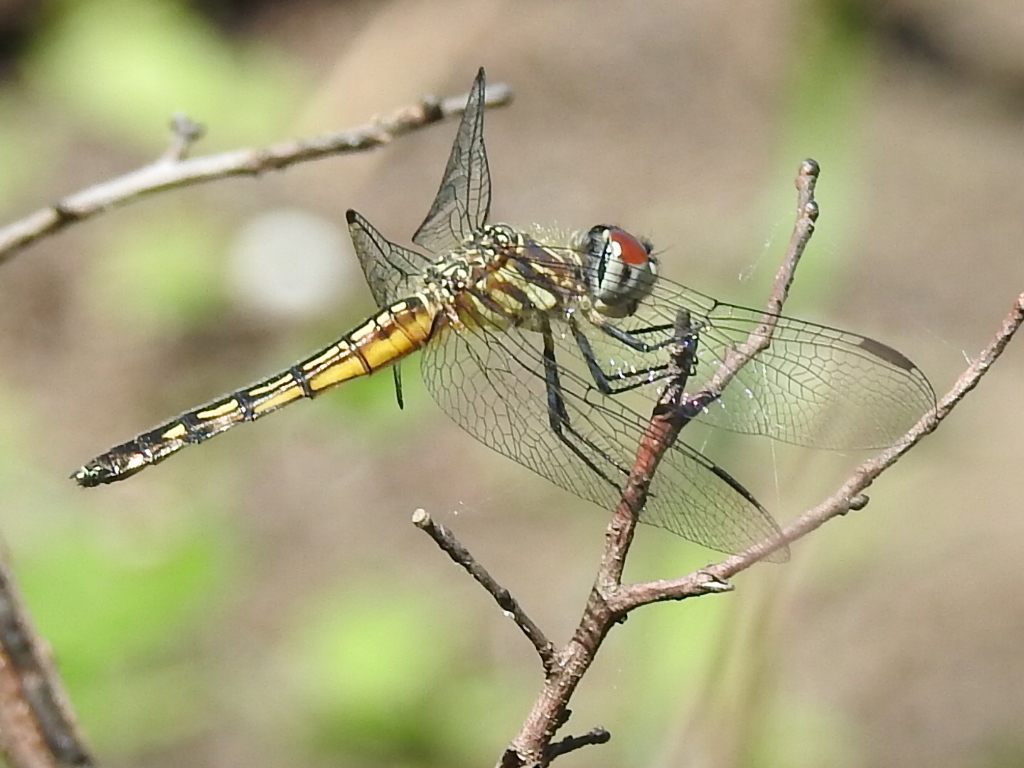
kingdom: Animalia
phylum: Arthropoda
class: Insecta
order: Odonata
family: Libellulidae
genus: Pachydiplax
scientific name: Pachydiplax longipennis
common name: Blue dasher
